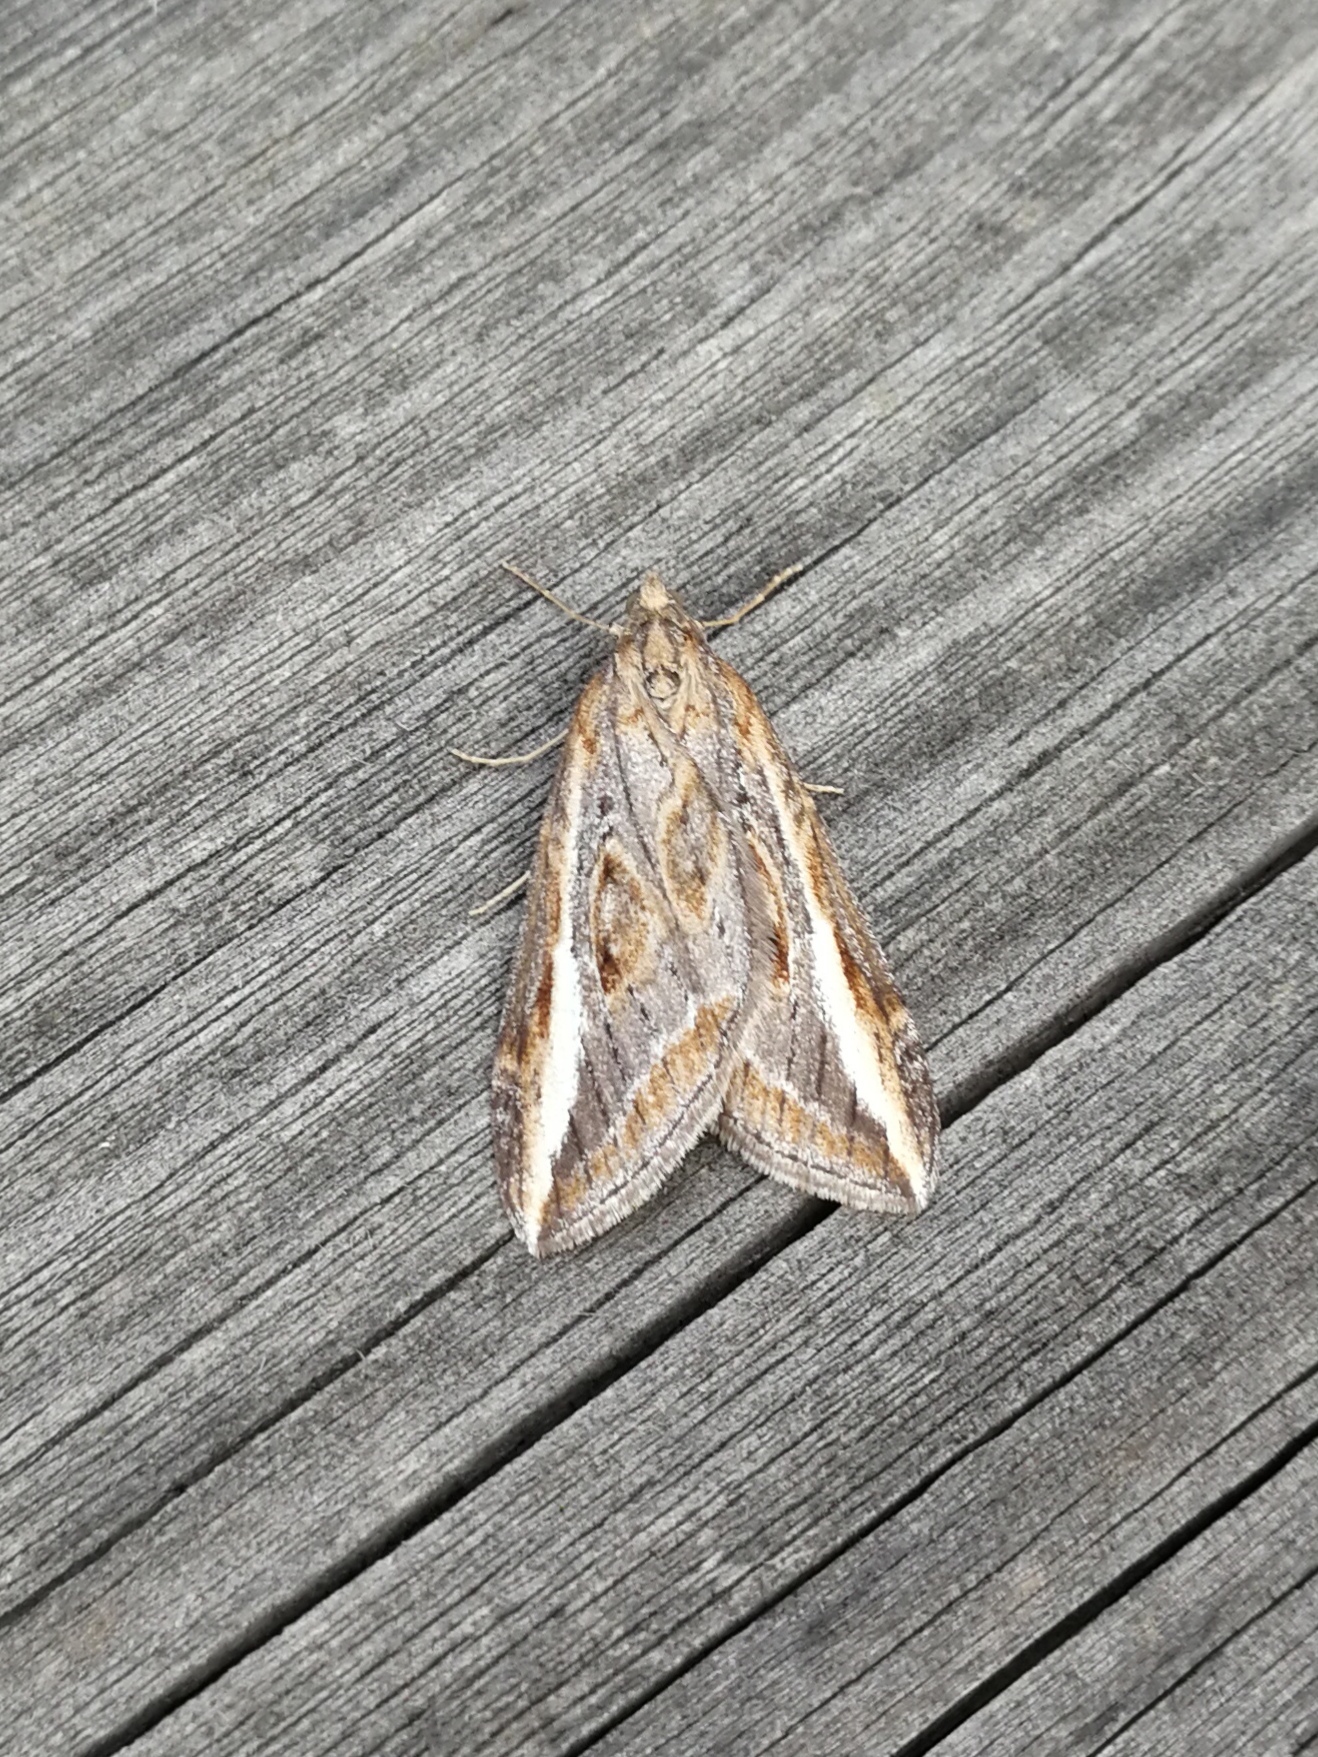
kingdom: Animalia
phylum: Arthropoda
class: Insecta
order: Lepidoptera
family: Geometridae
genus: Chesias
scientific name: Chesias legatella
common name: Streak
